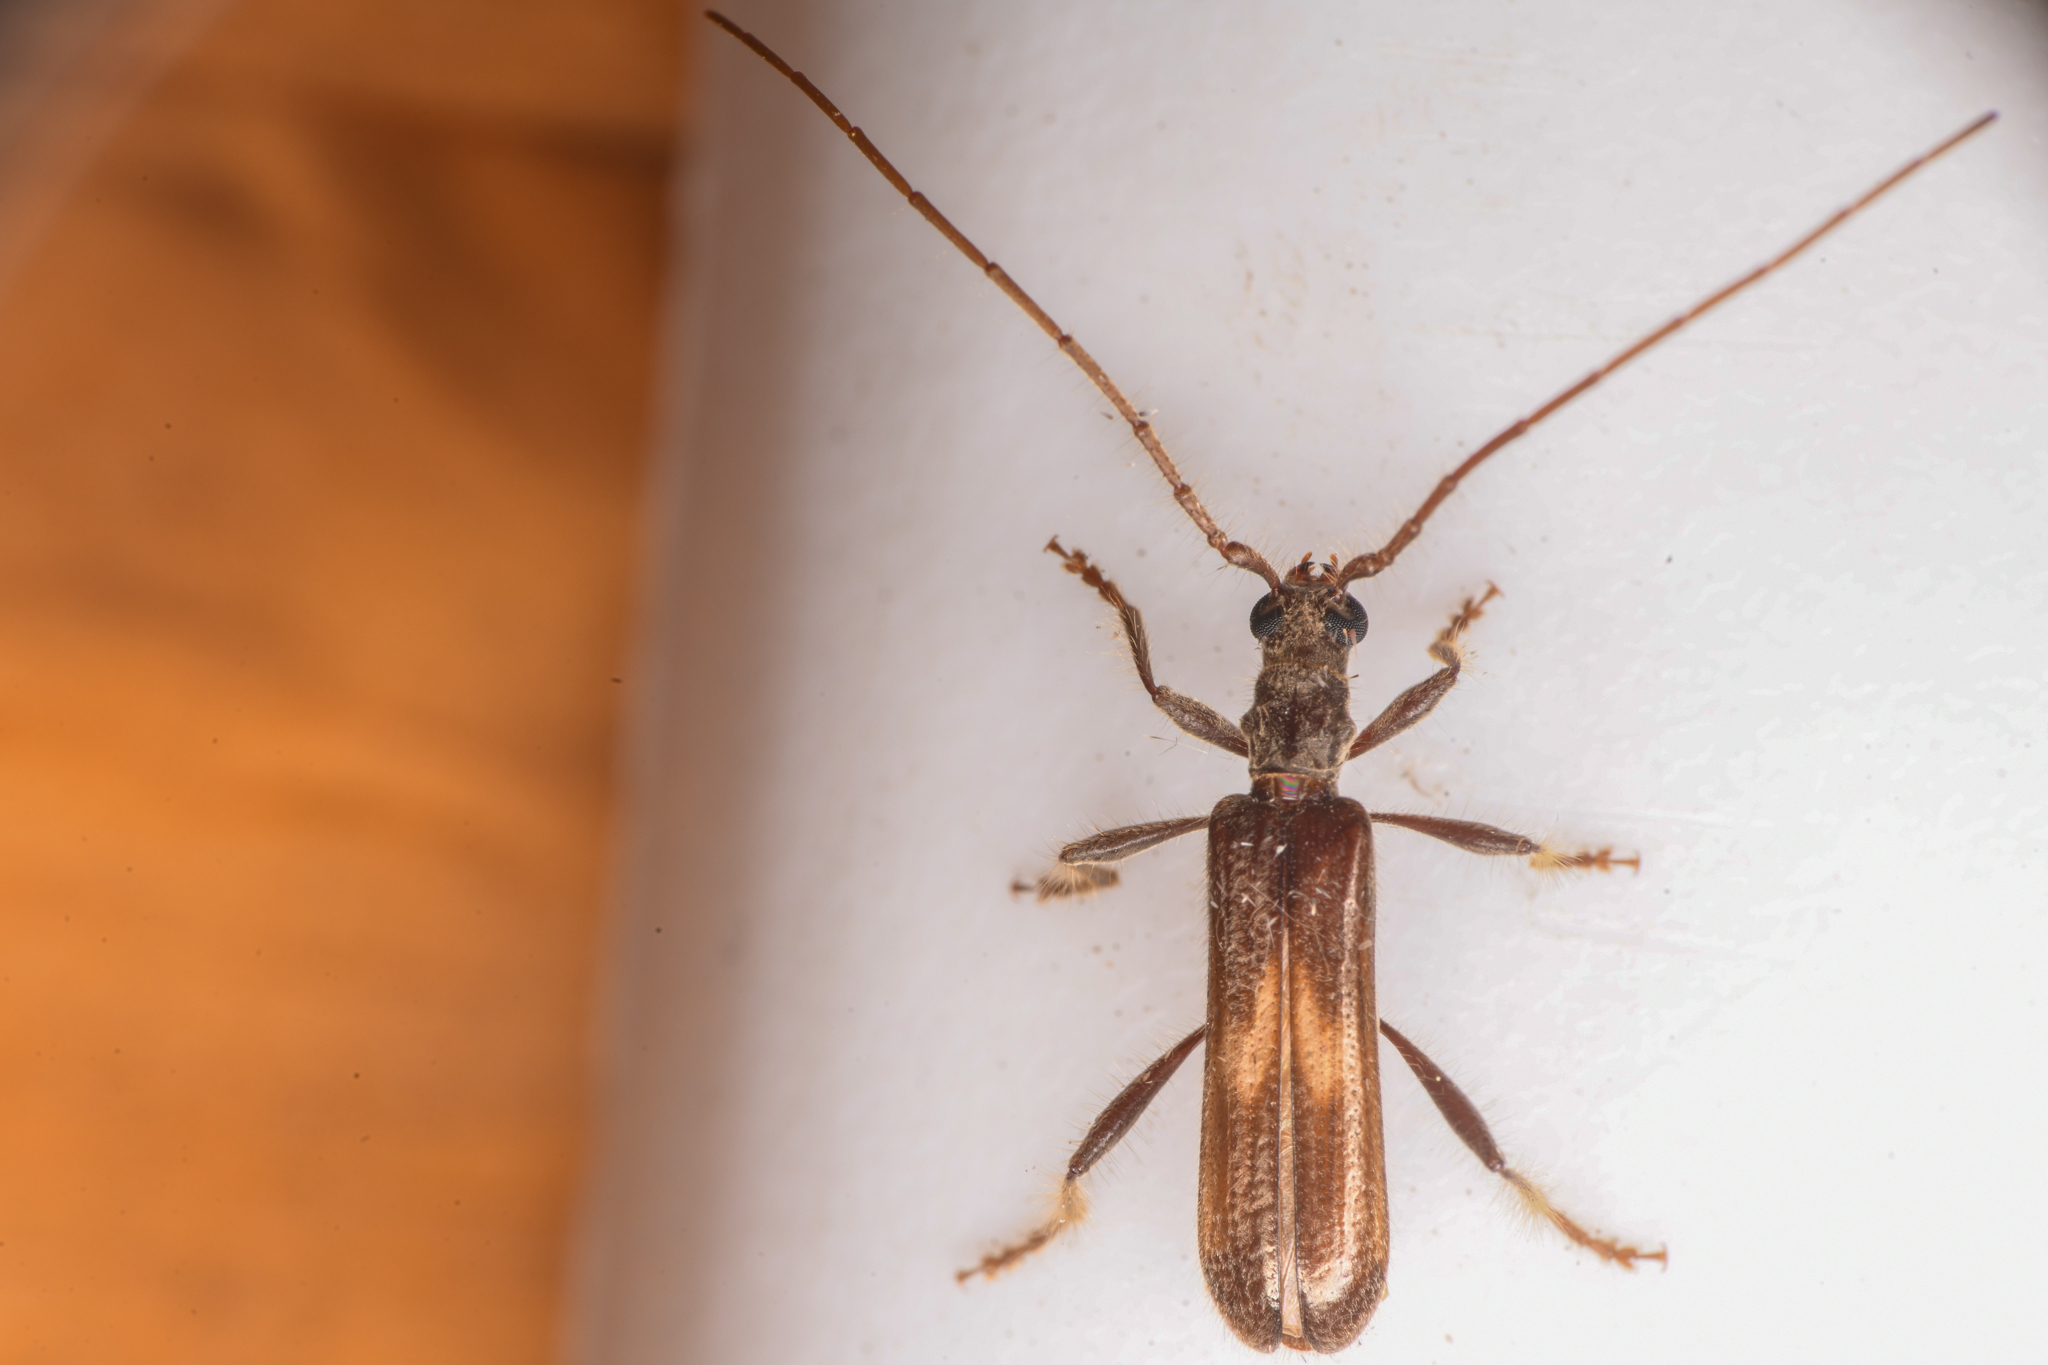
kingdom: Animalia
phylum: Arthropoda
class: Insecta
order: Coleoptera
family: Cerambycidae
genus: Megobrium
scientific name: Megobrium edwardsii
